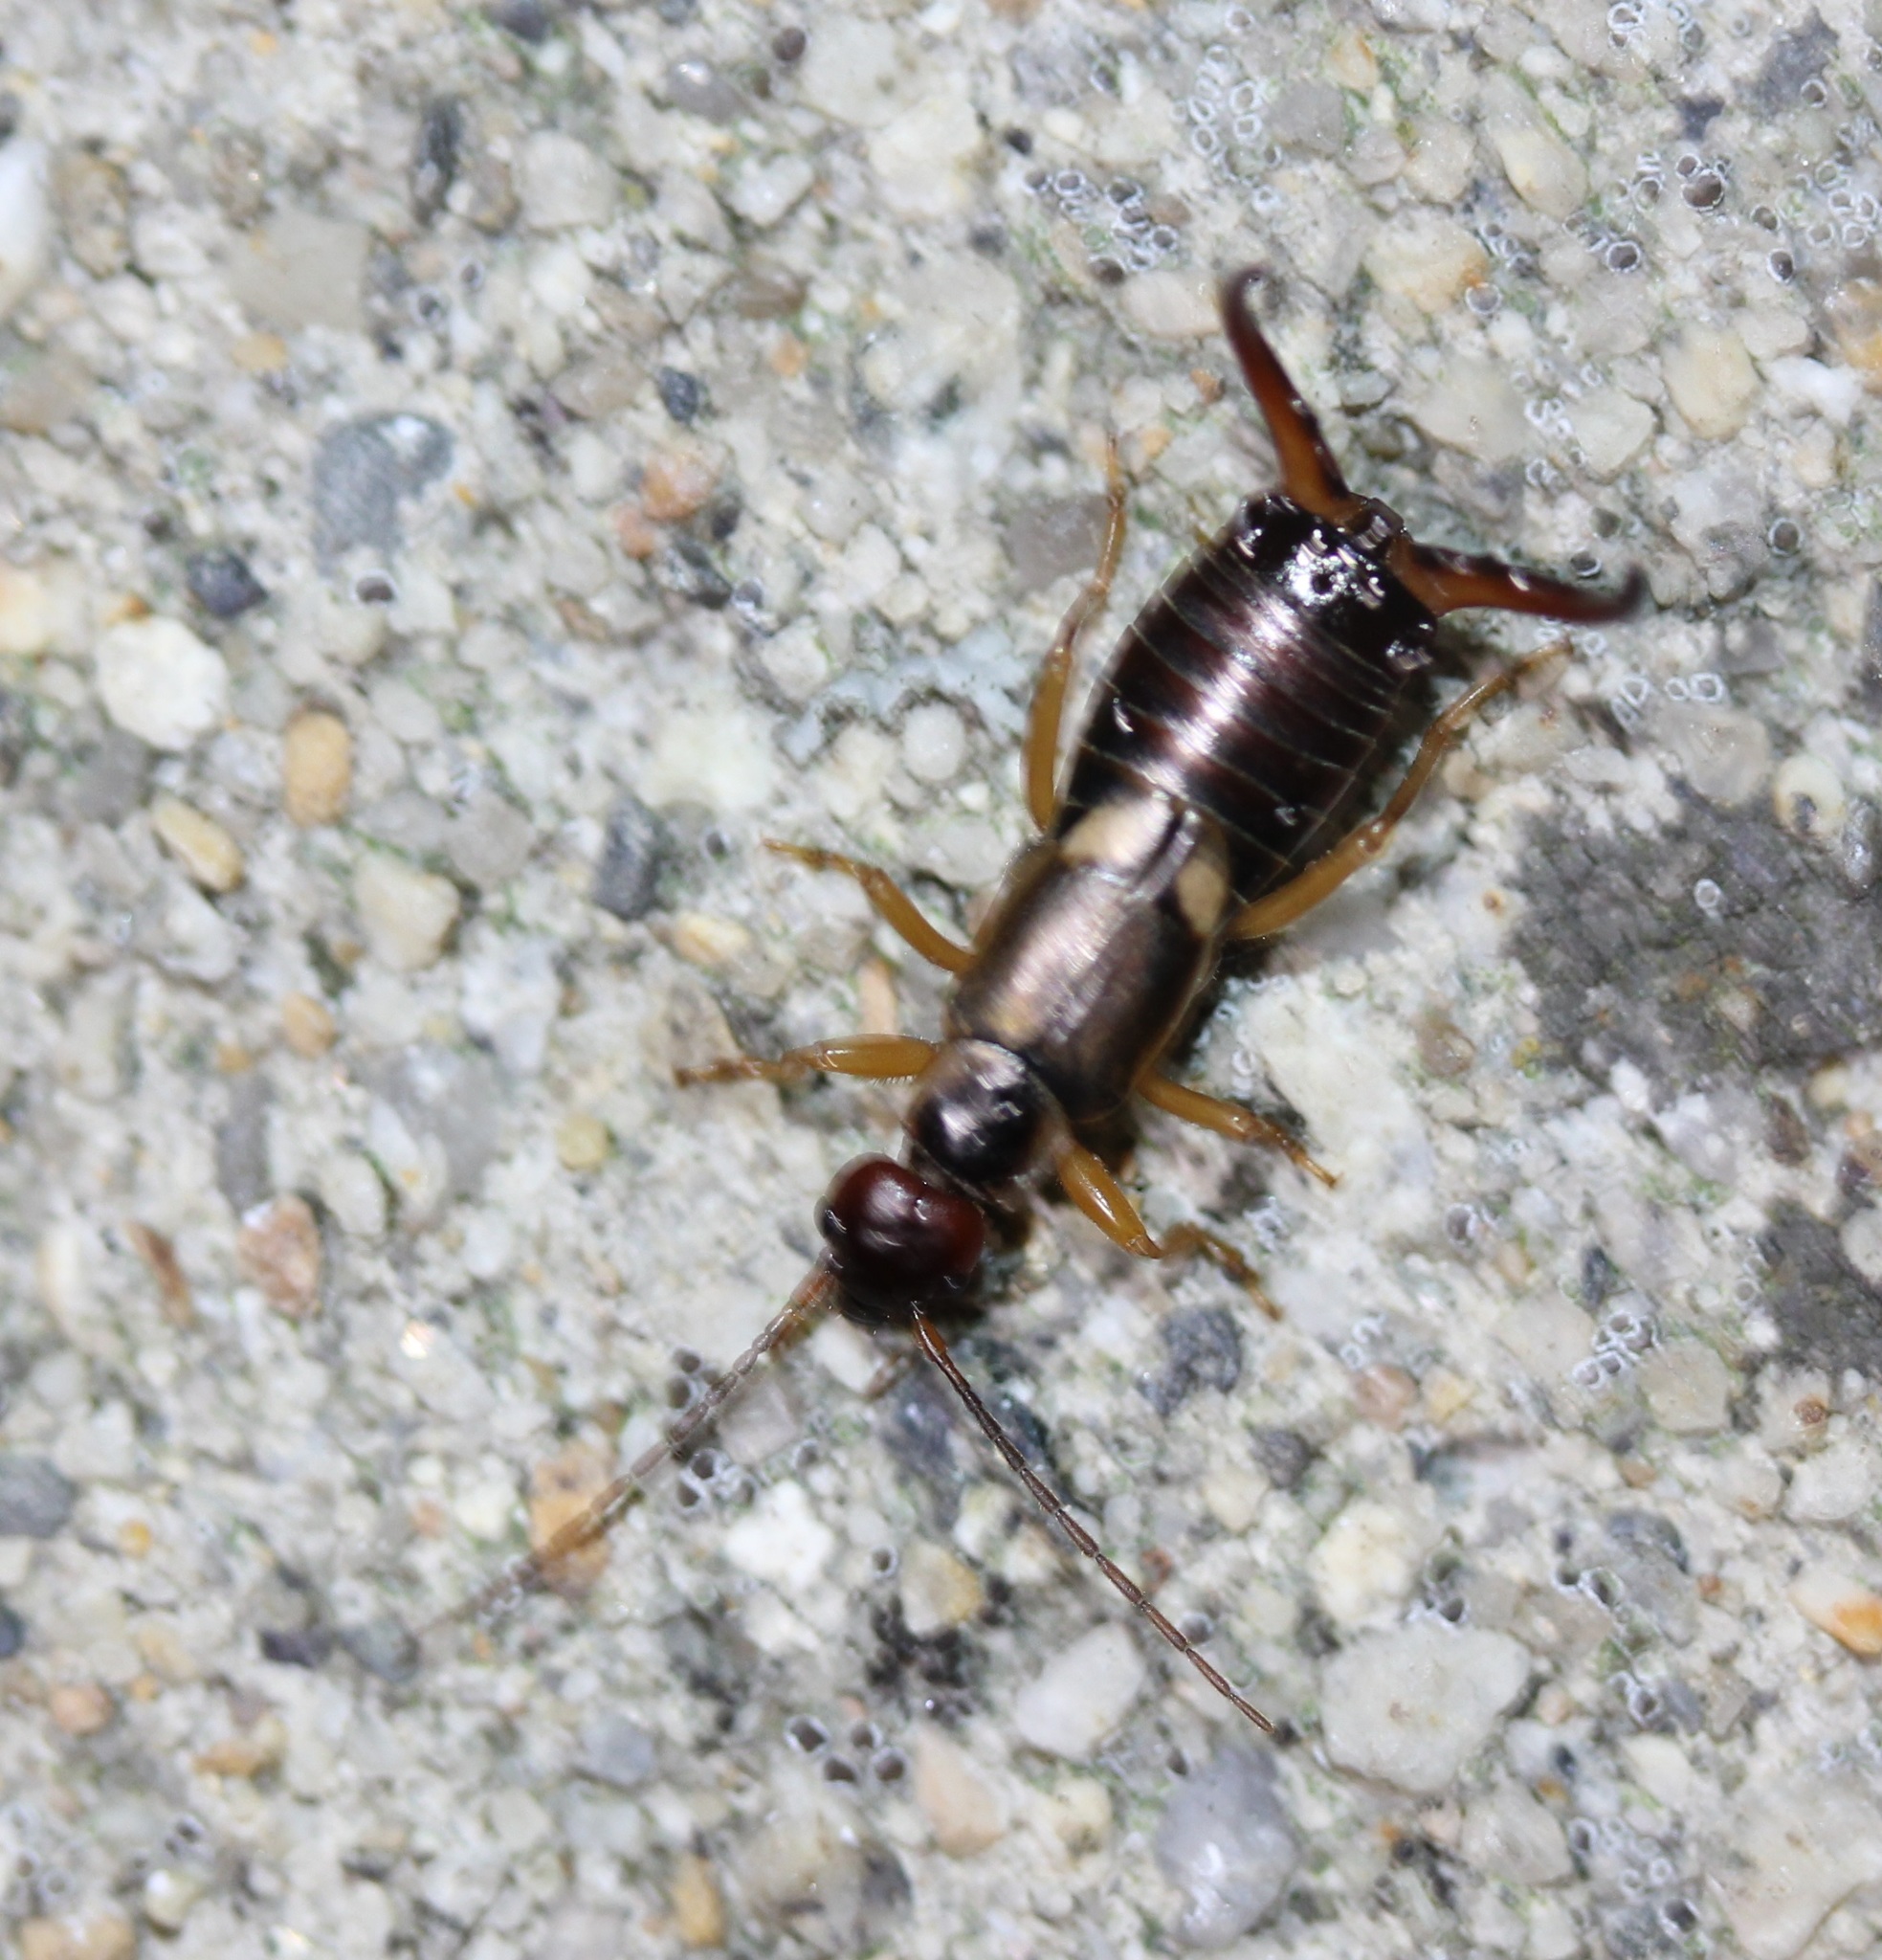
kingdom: Animalia
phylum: Arthropoda
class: Insecta
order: Dermaptera
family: Forficulidae
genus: Forficula
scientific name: Forficula
